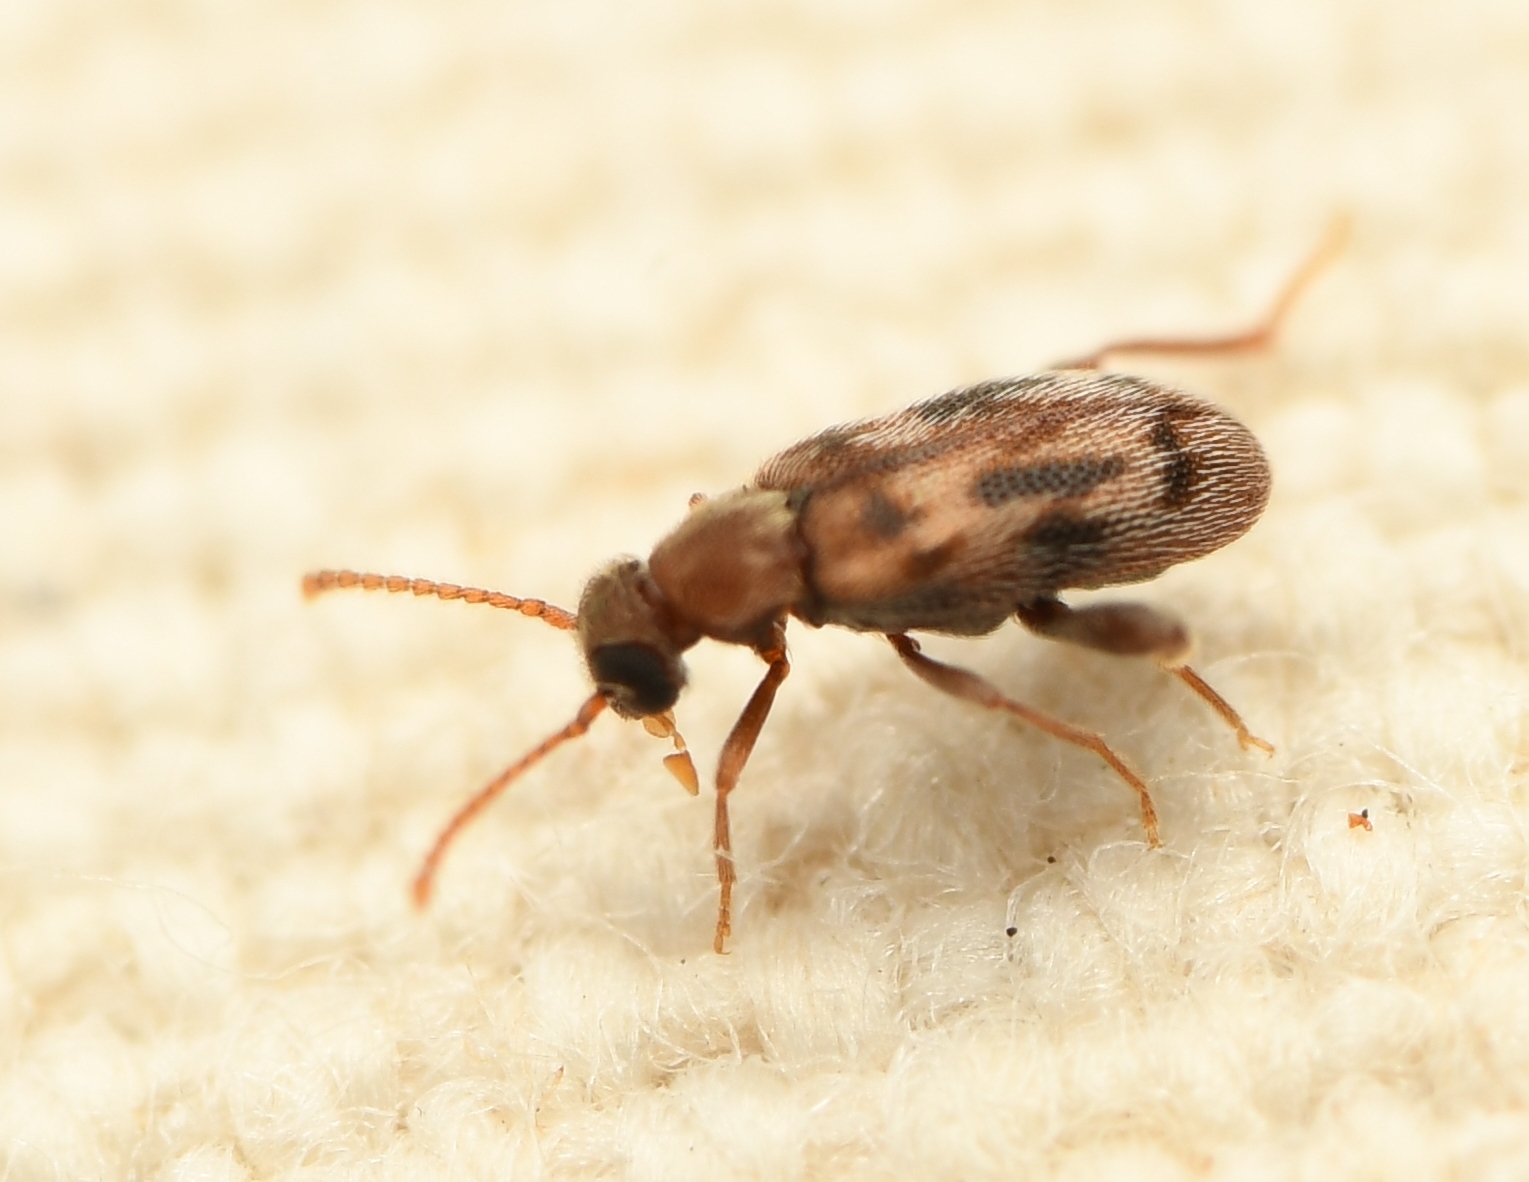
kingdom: Animalia
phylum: Arthropoda
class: Insecta
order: Coleoptera
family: Aderidae
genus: Emelinus
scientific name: Emelinus melsheimeri
